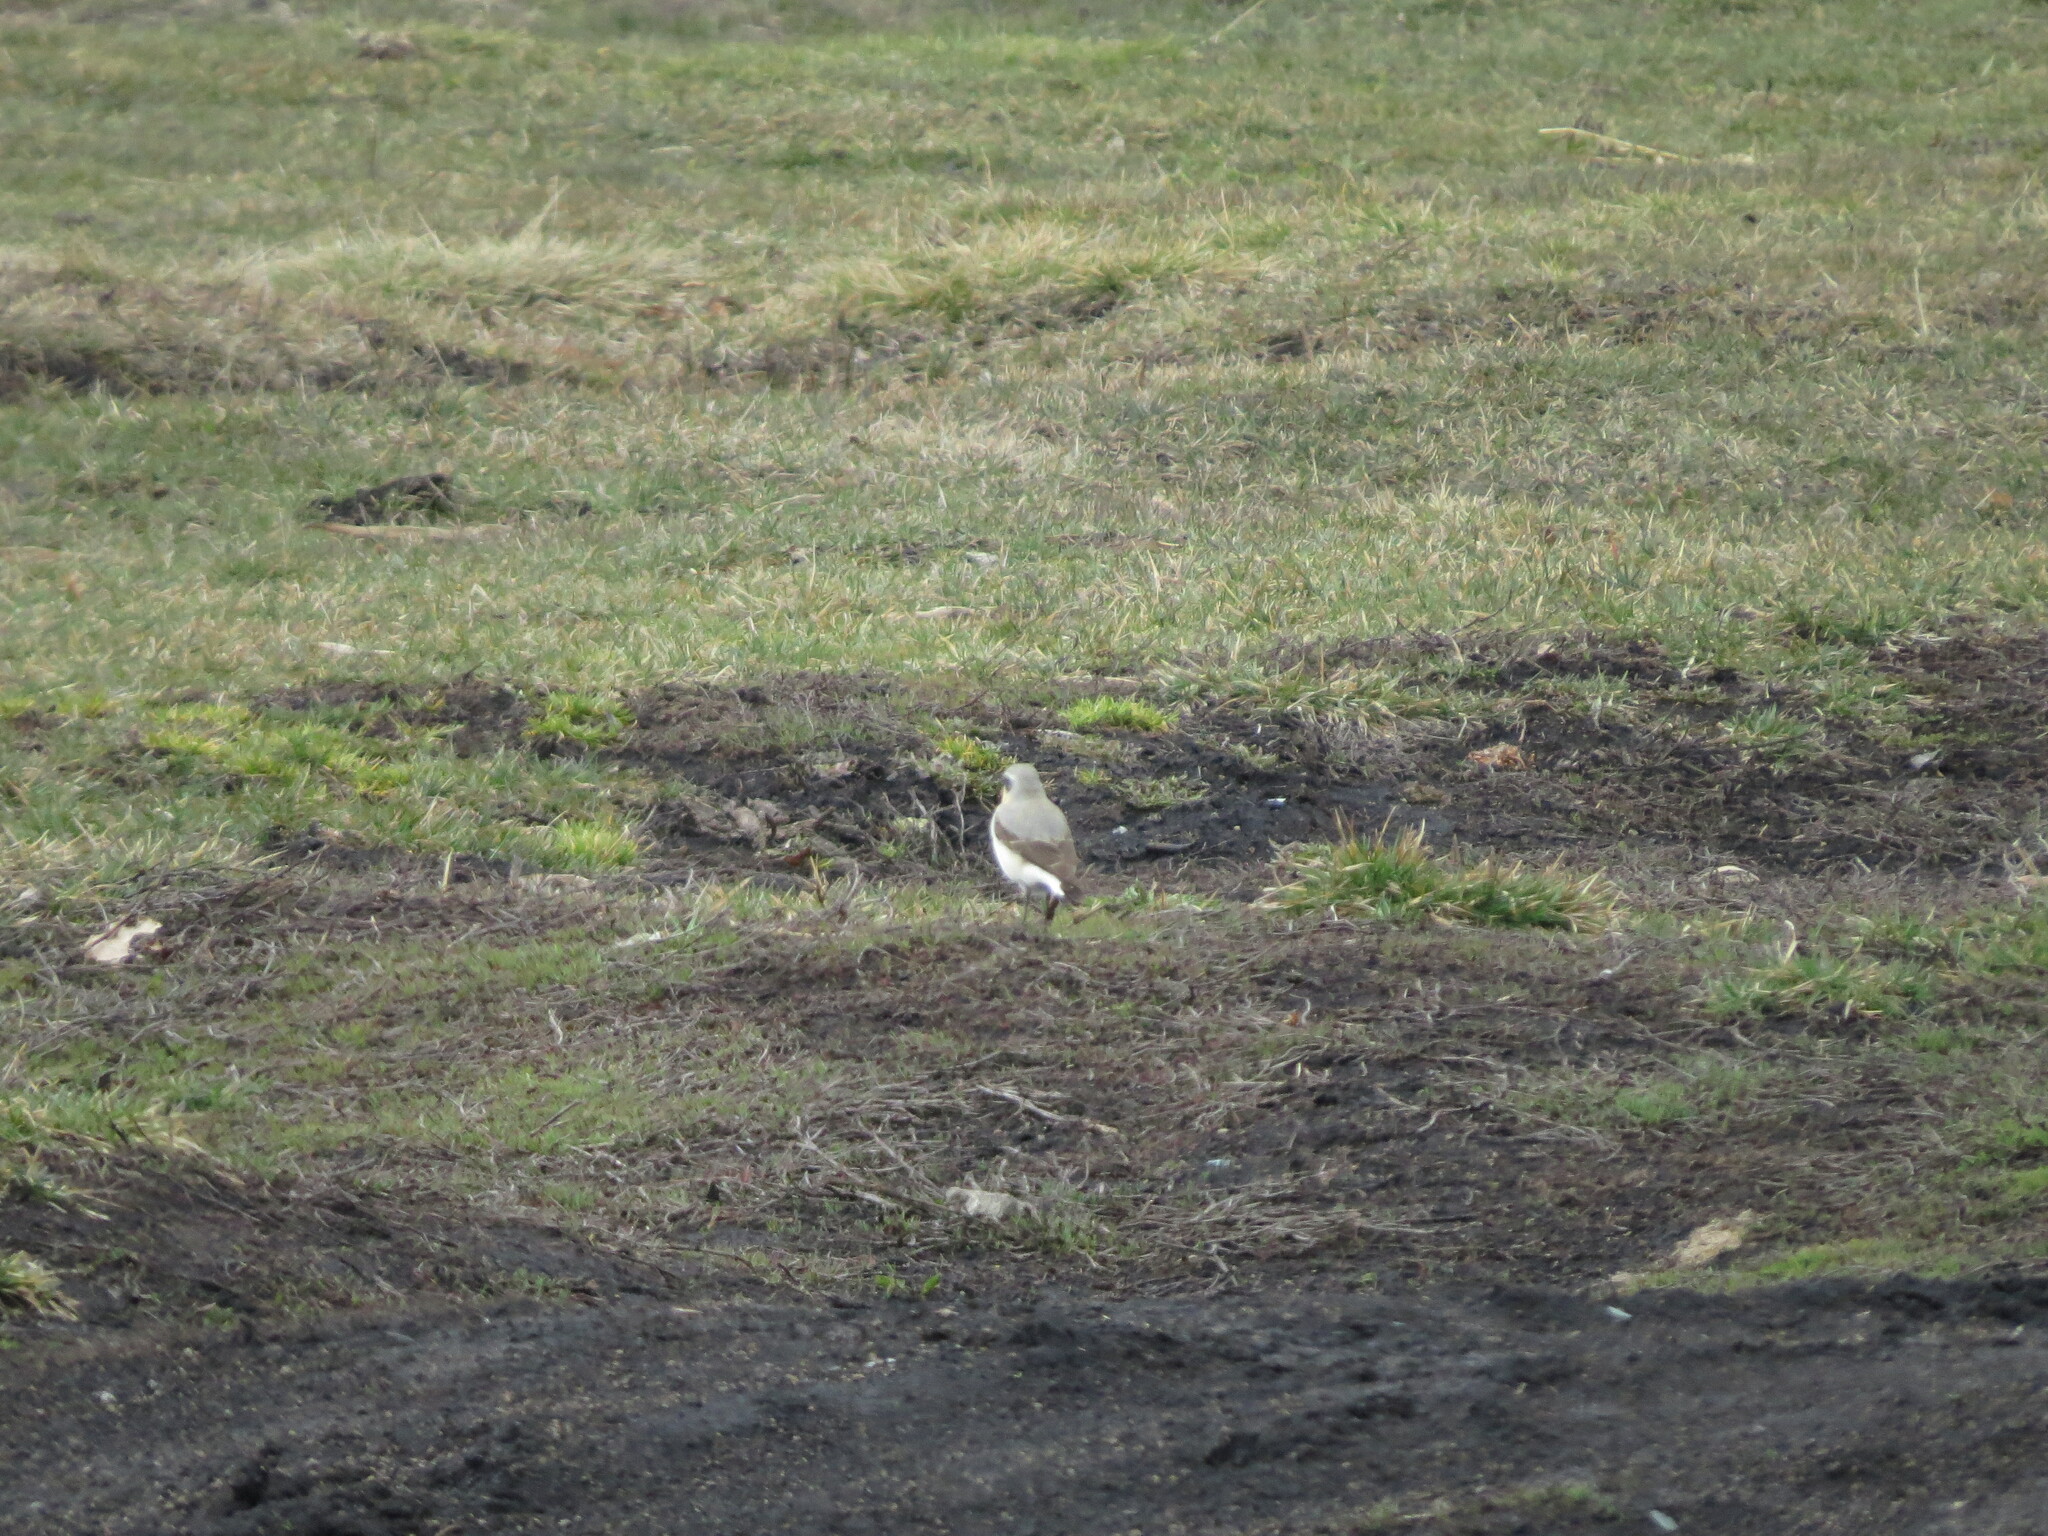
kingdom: Animalia
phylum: Chordata
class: Aves
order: Passeriformes
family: Muscicapidae
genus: Oenanthe
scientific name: Oenanthe oenanthe
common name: Northern wheatear
